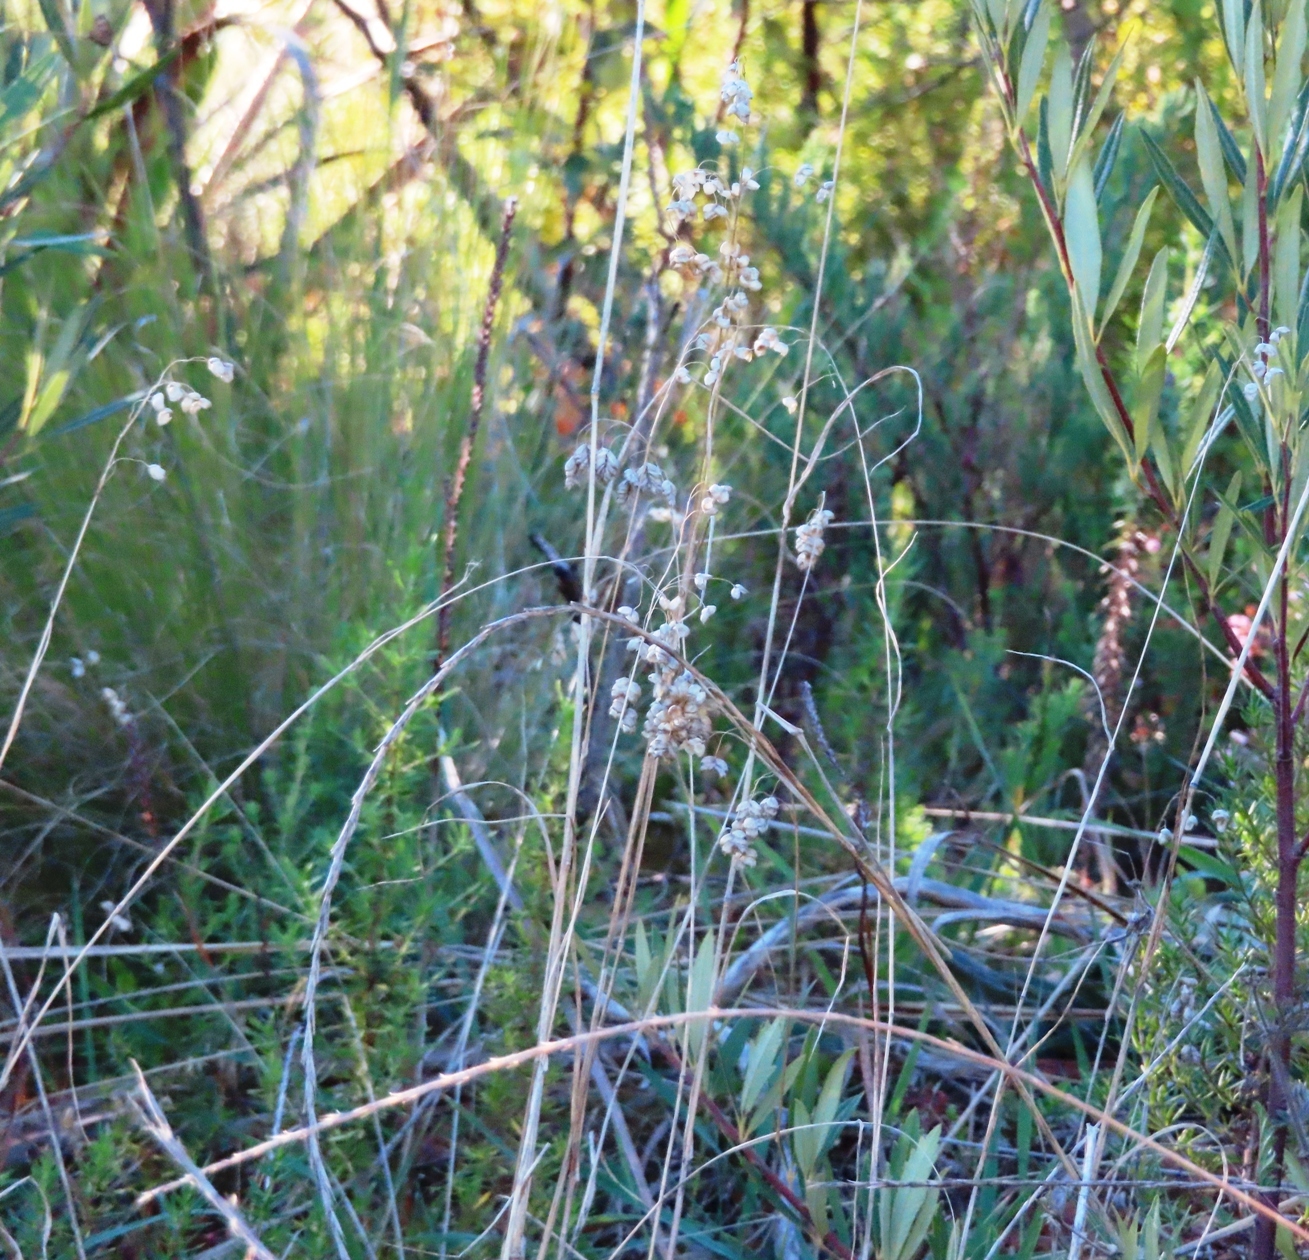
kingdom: Plantae
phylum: Tracheophyta
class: Liliopsida
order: Poales
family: Poaceae
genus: Briza
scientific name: Briza maxima
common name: Big quakinggrass
